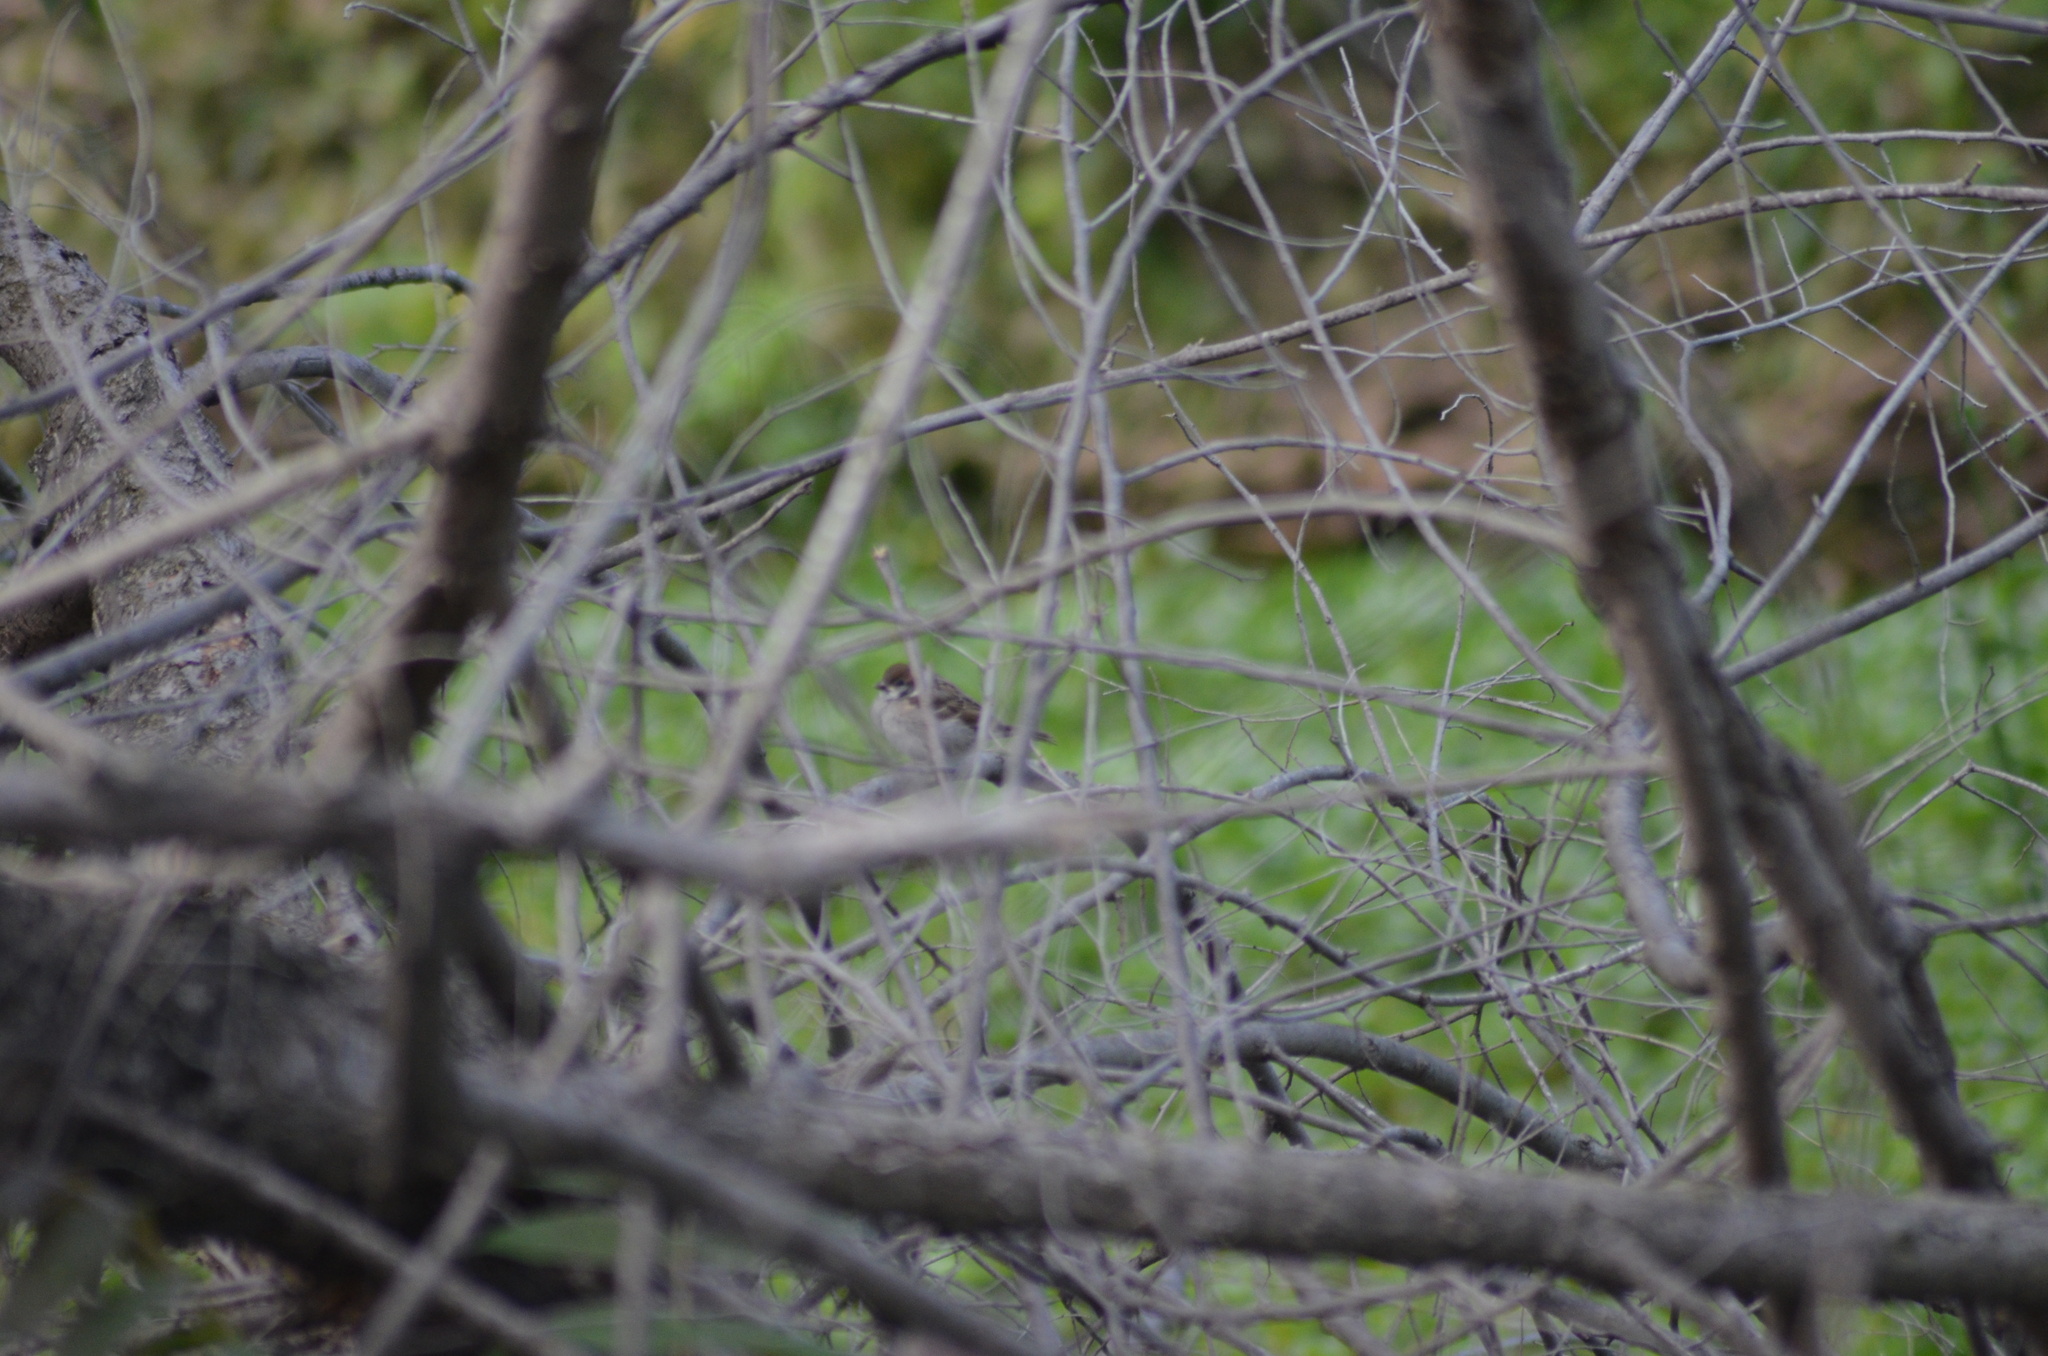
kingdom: Animalia
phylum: Chordata
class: Aves
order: Passeriformes
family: Passeridae
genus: Passer
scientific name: Passer montanus
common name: Eurasian tree sparrow
